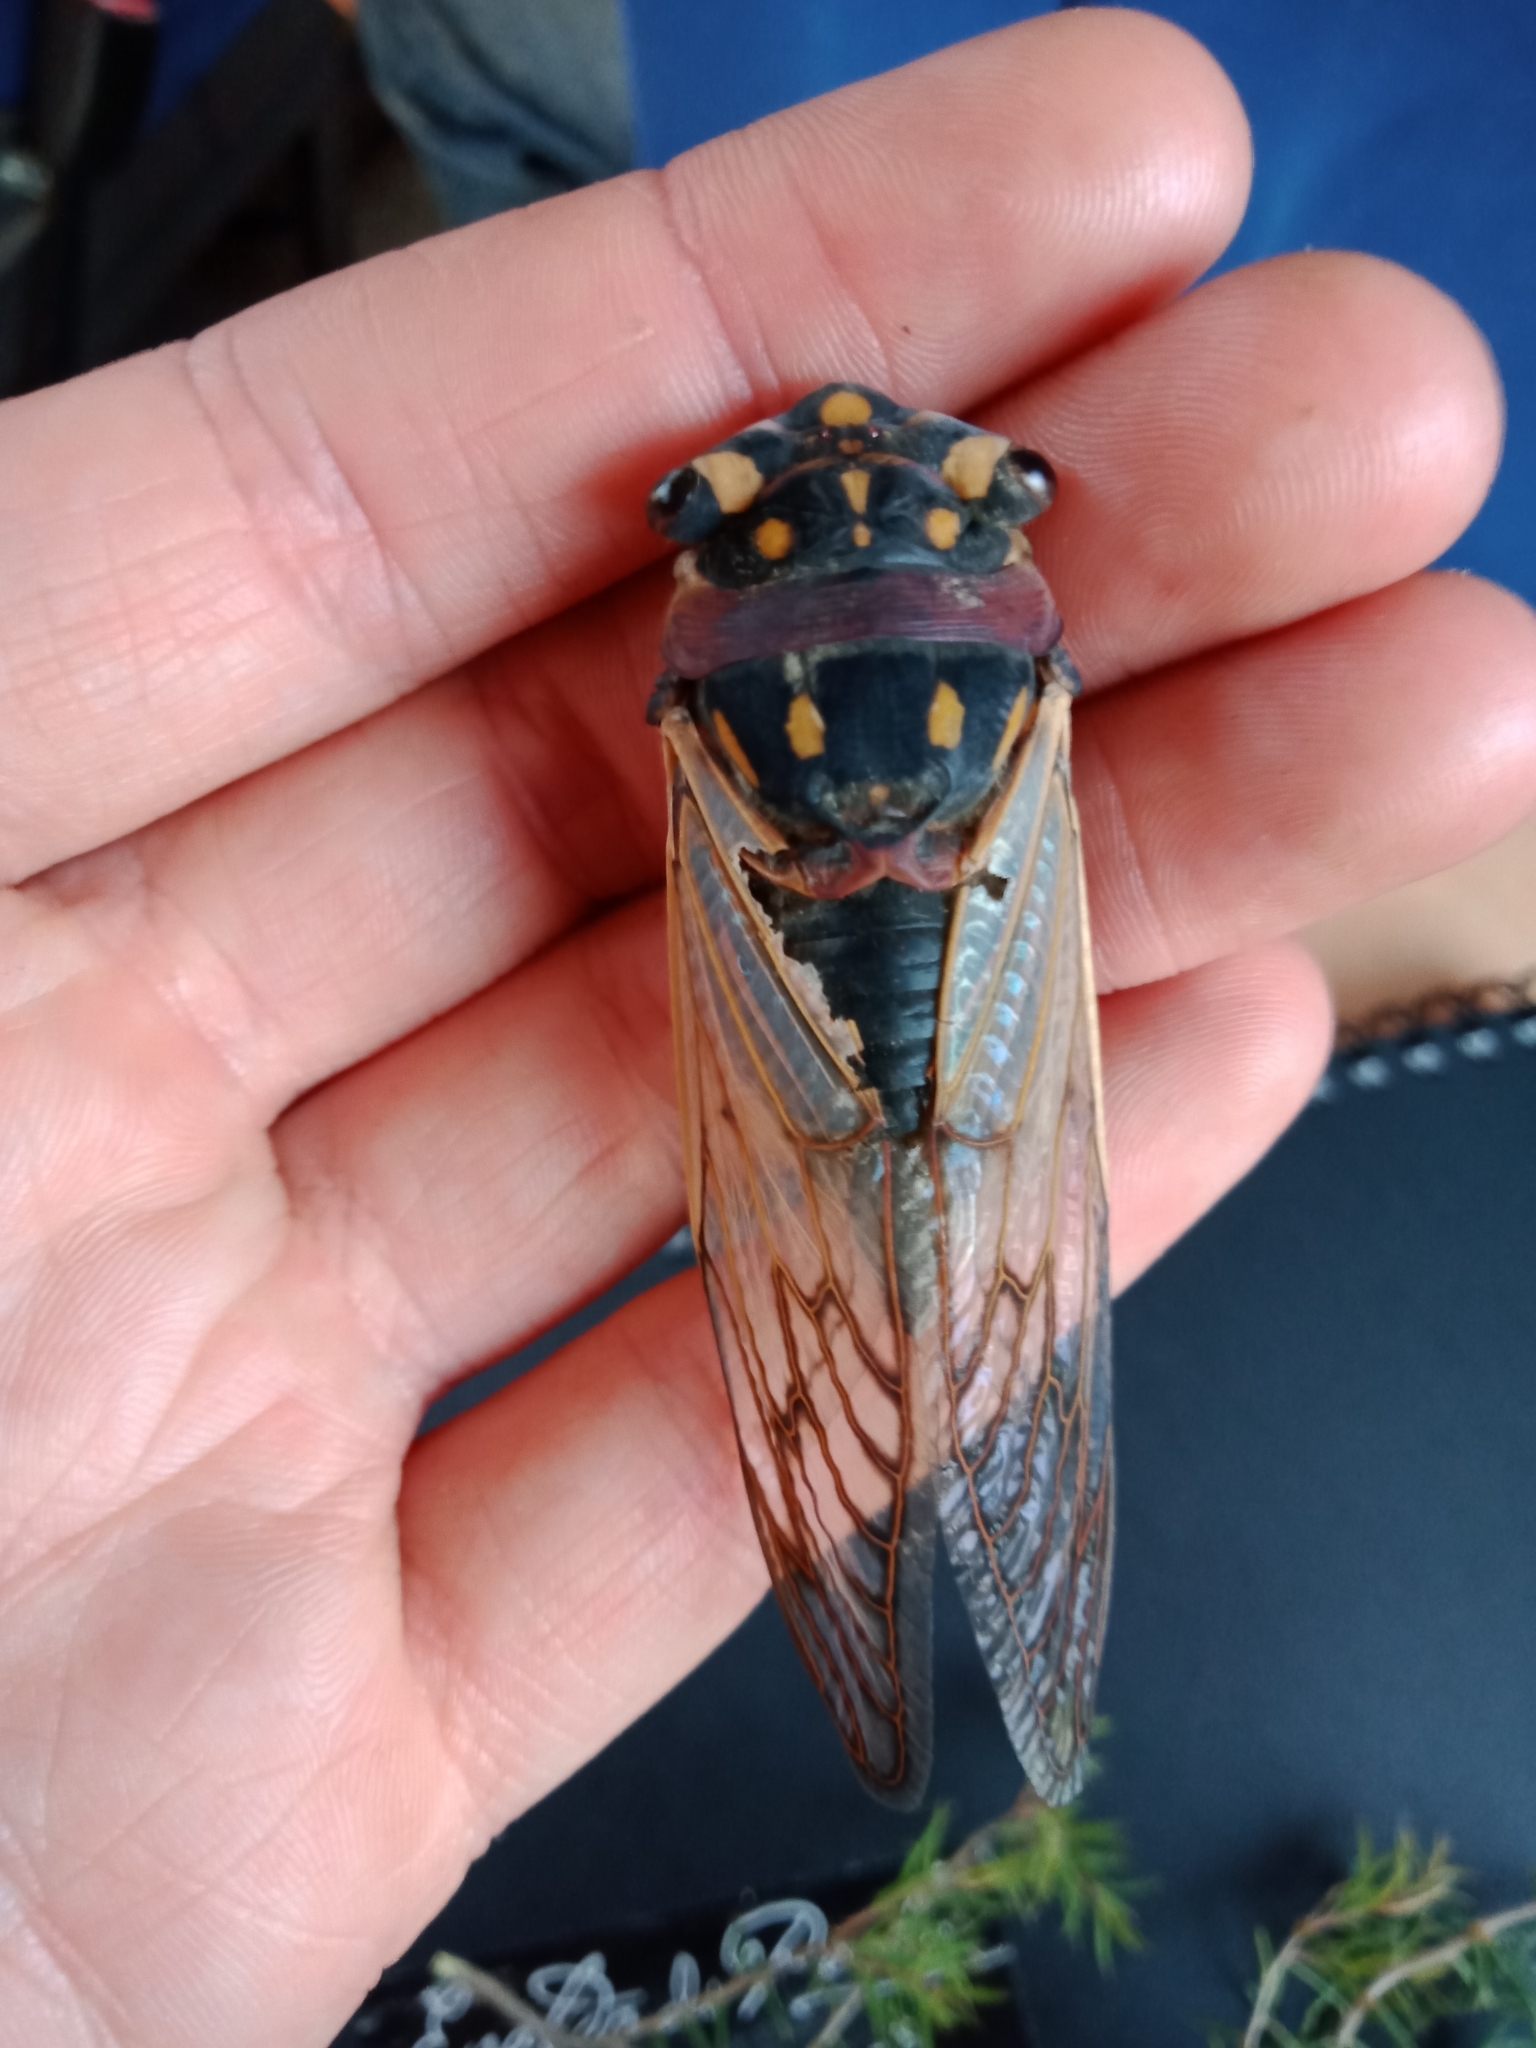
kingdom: Animalia
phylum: Arthropoda
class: Insecta
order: Hemiptera
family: Cicadidae
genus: Macrotristria
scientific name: Macrotristria angularis
